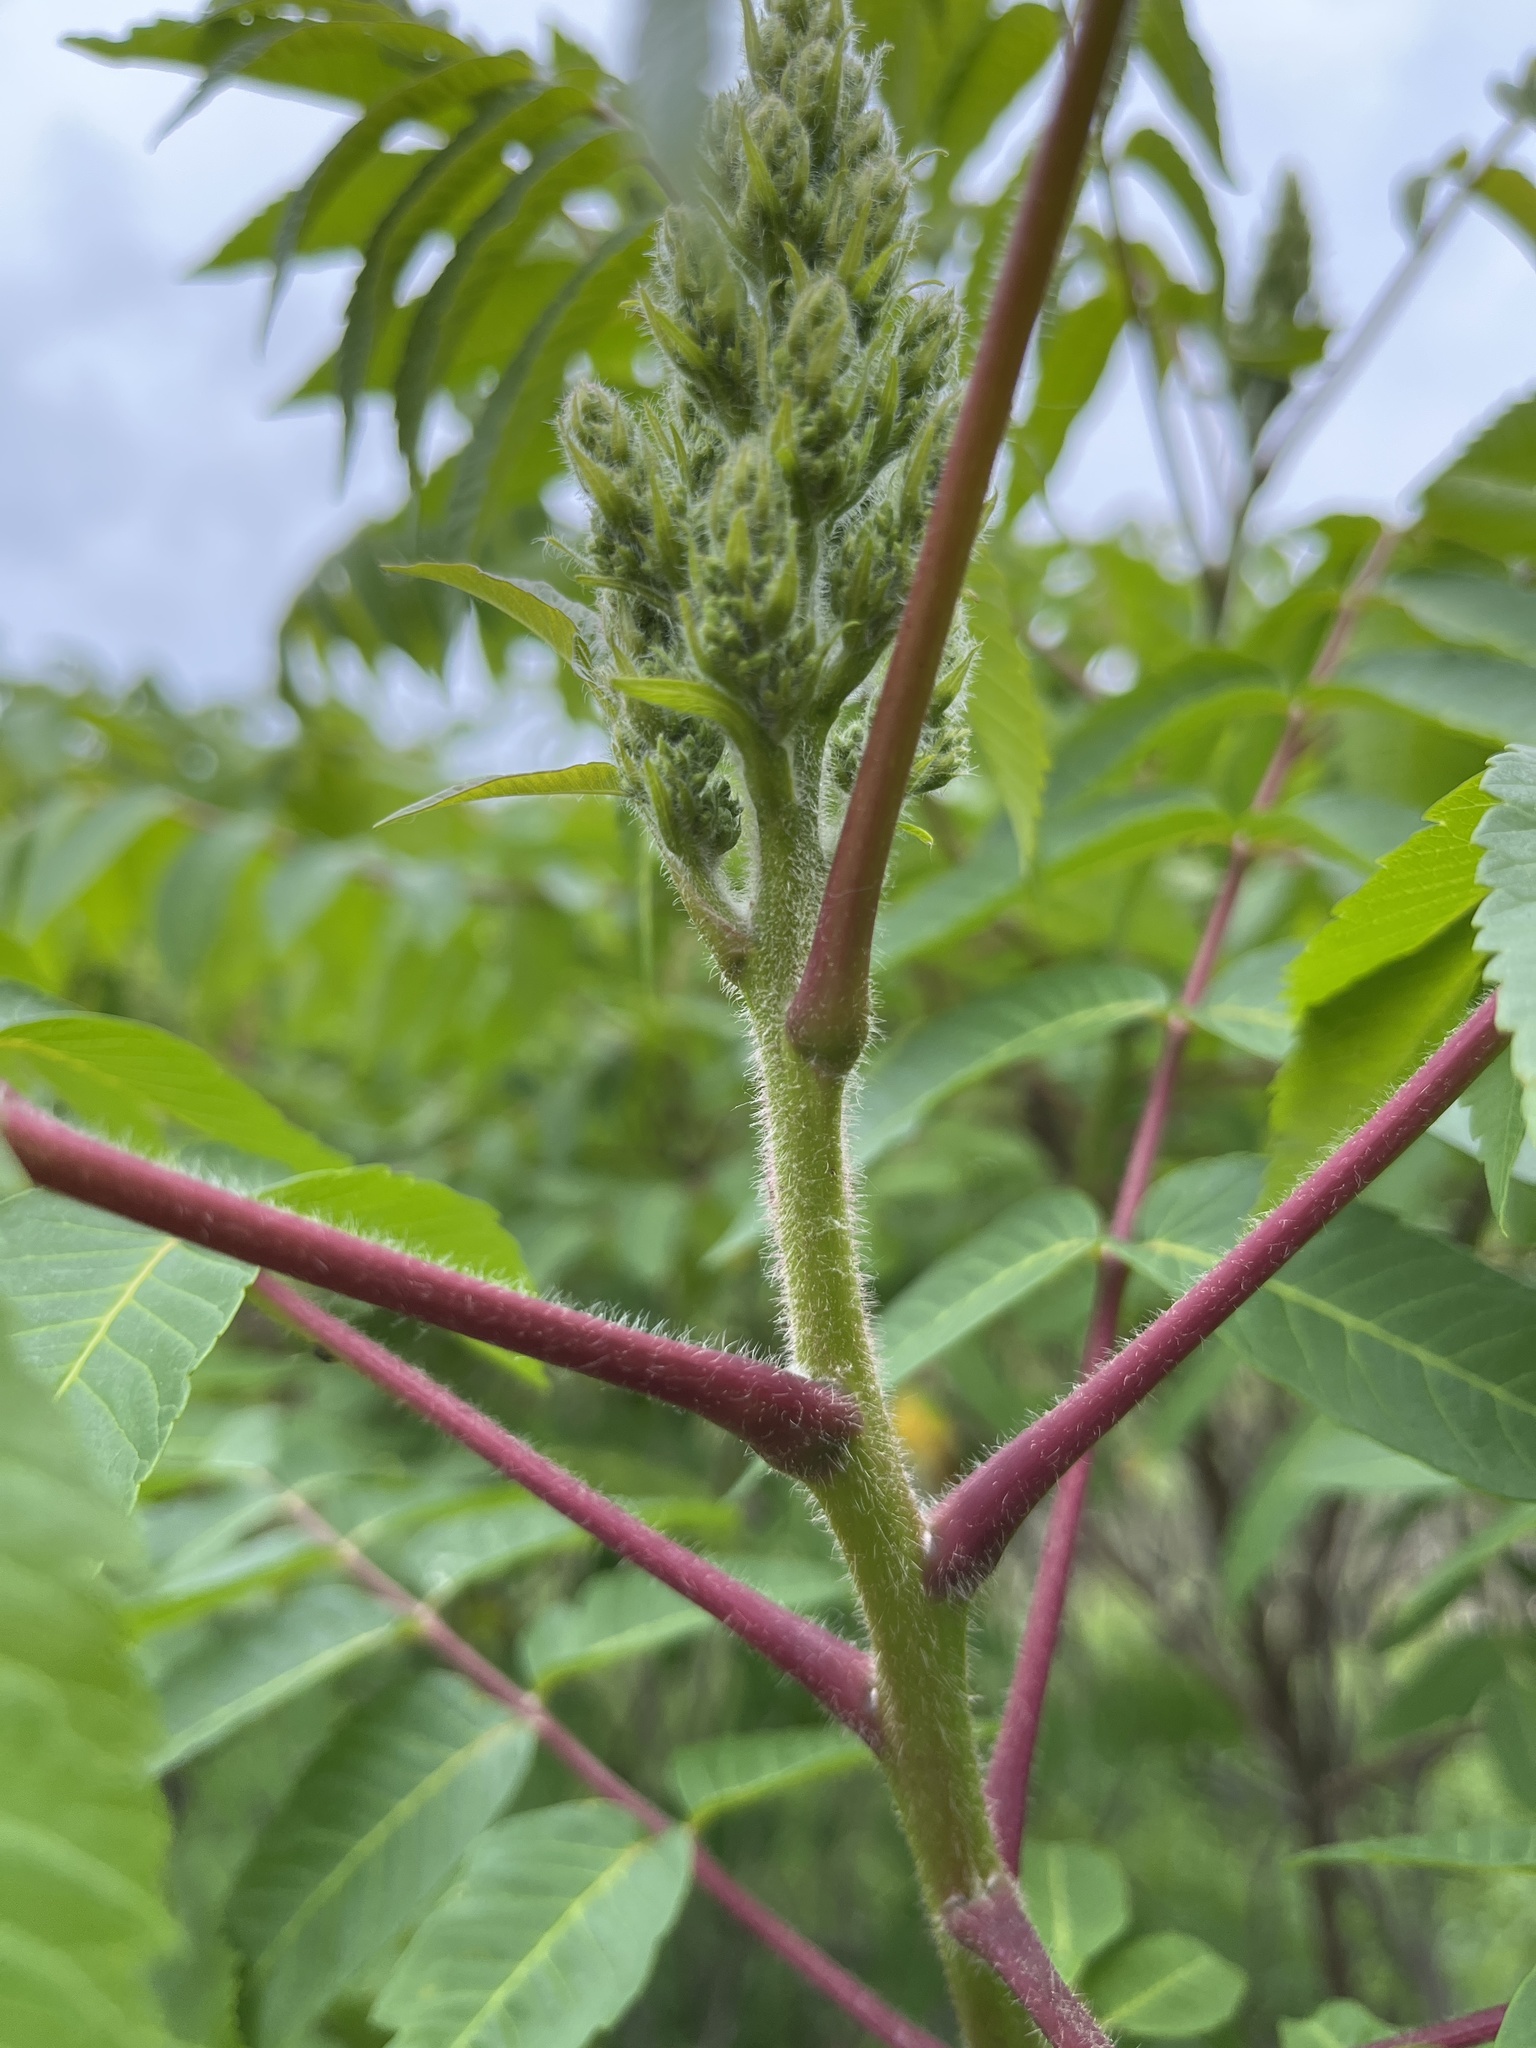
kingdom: Plantae
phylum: Tracheophyta
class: Magnoliopsida
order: Sapindales
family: Anacardiaceae
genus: Rhus
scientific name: Rhus typhina
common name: Staghorn sumac
